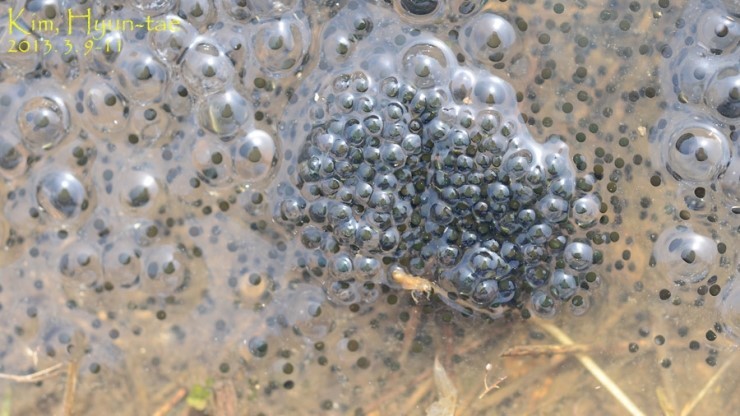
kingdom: Animalia
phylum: Chordata
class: Amphibia
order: Anura
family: Ranidae
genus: Rana
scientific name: Rana uenoi
